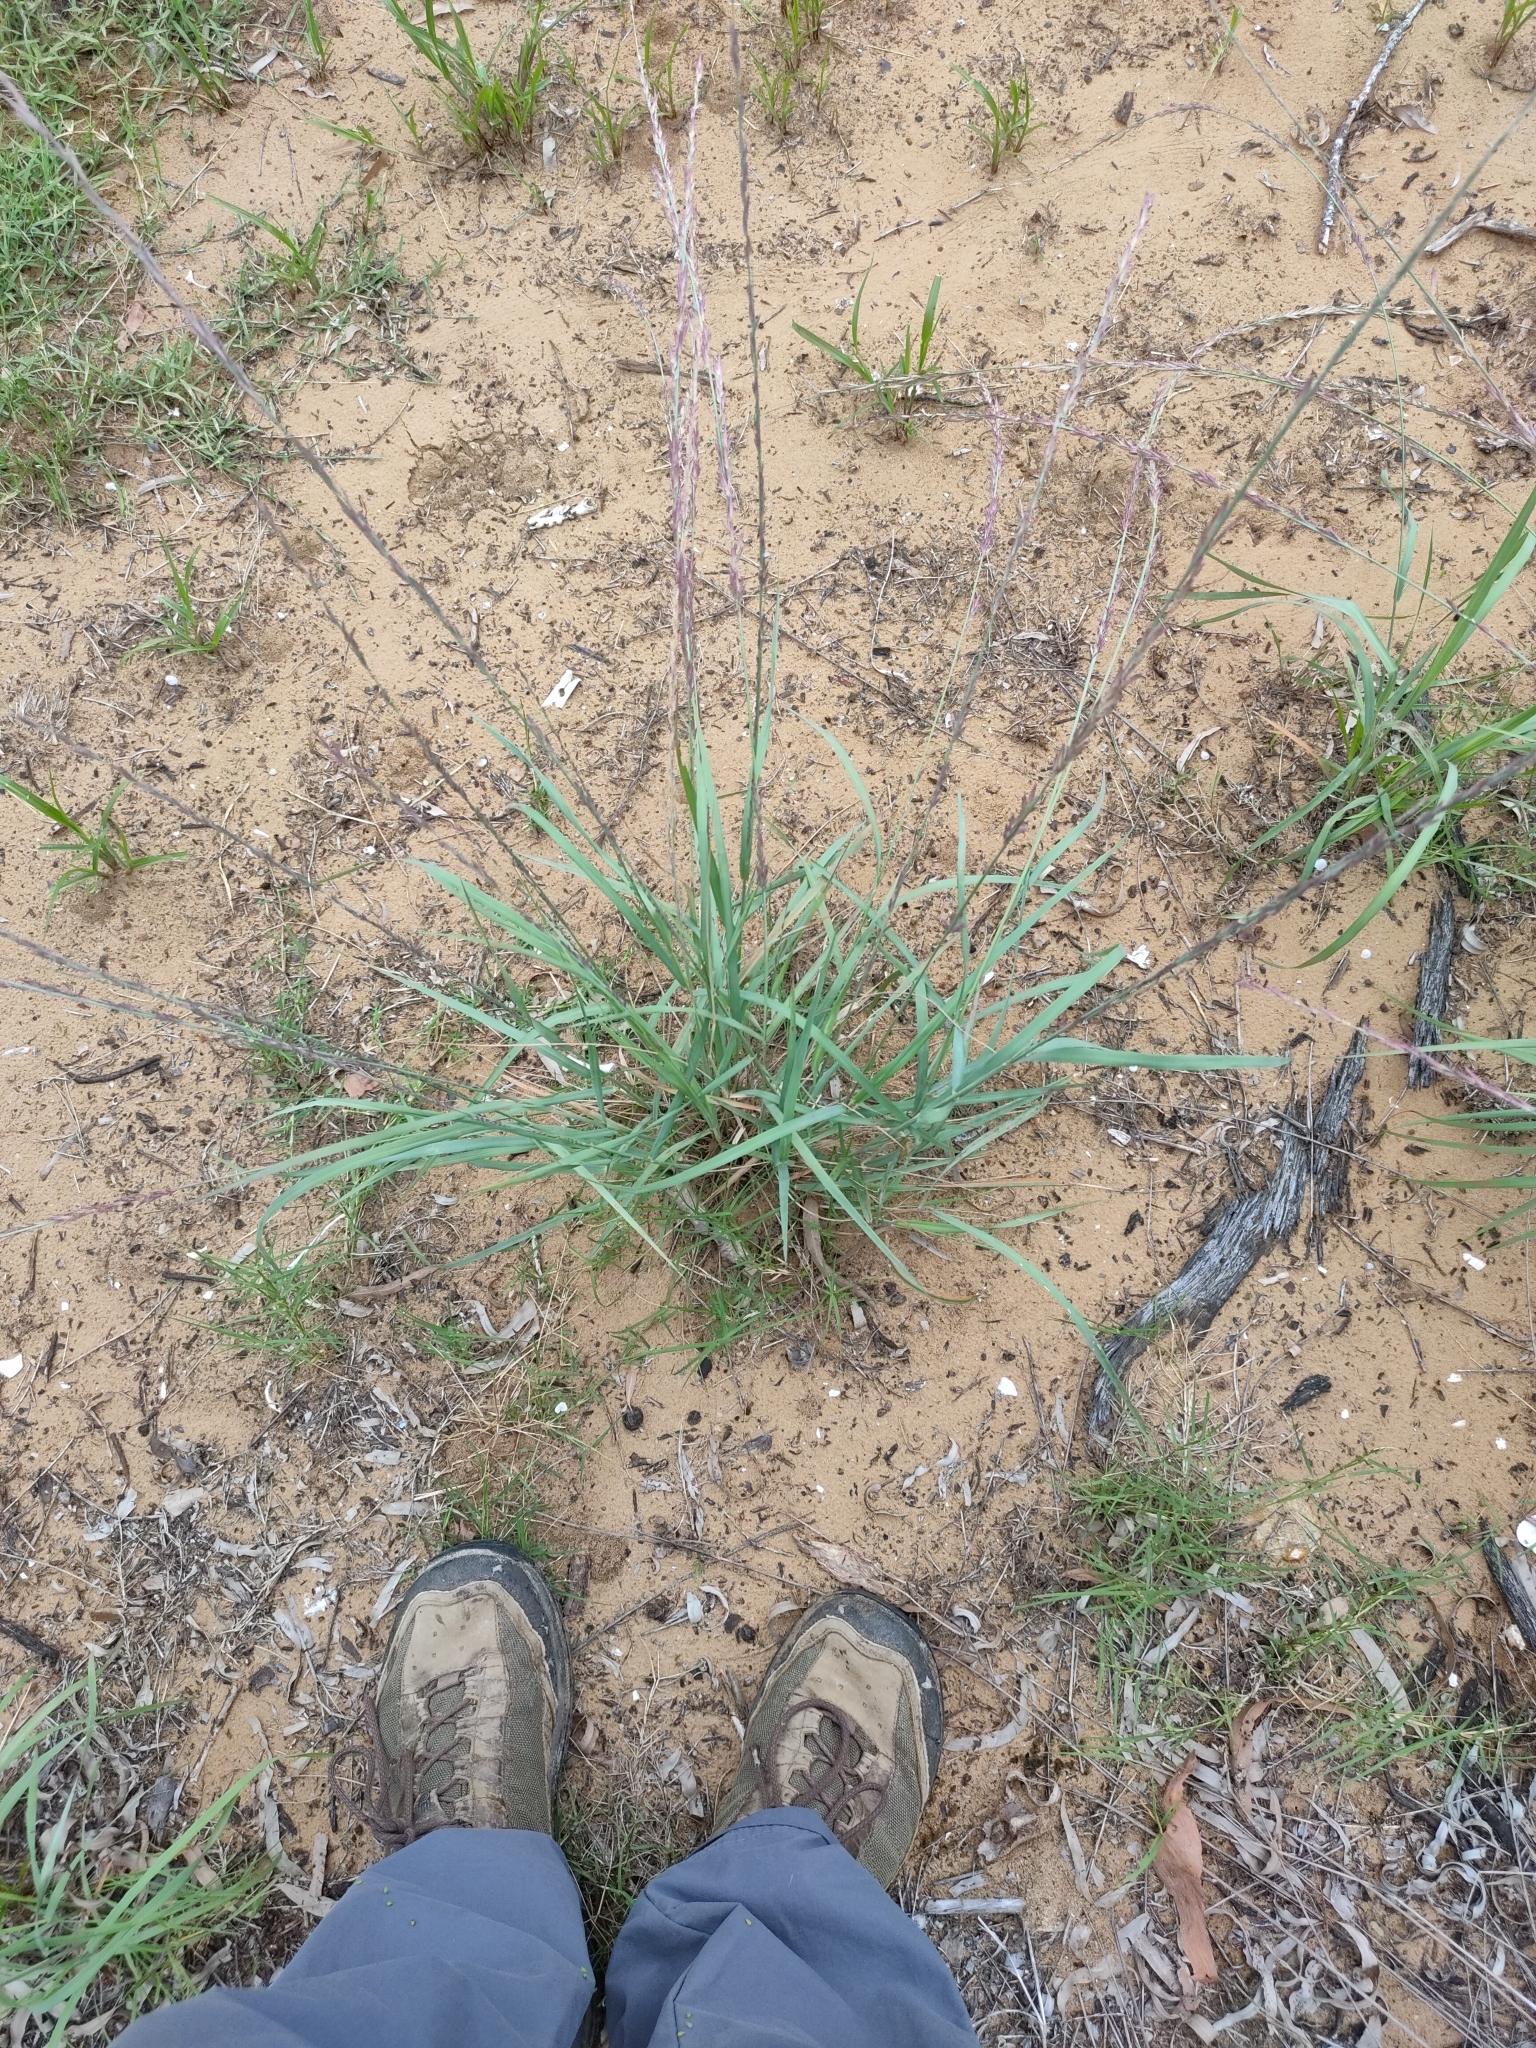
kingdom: Plantae
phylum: Tracheophyta
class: Liliopsida
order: Poales
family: Poaceae
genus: Eragrostis
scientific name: Eragrostis interrupta
